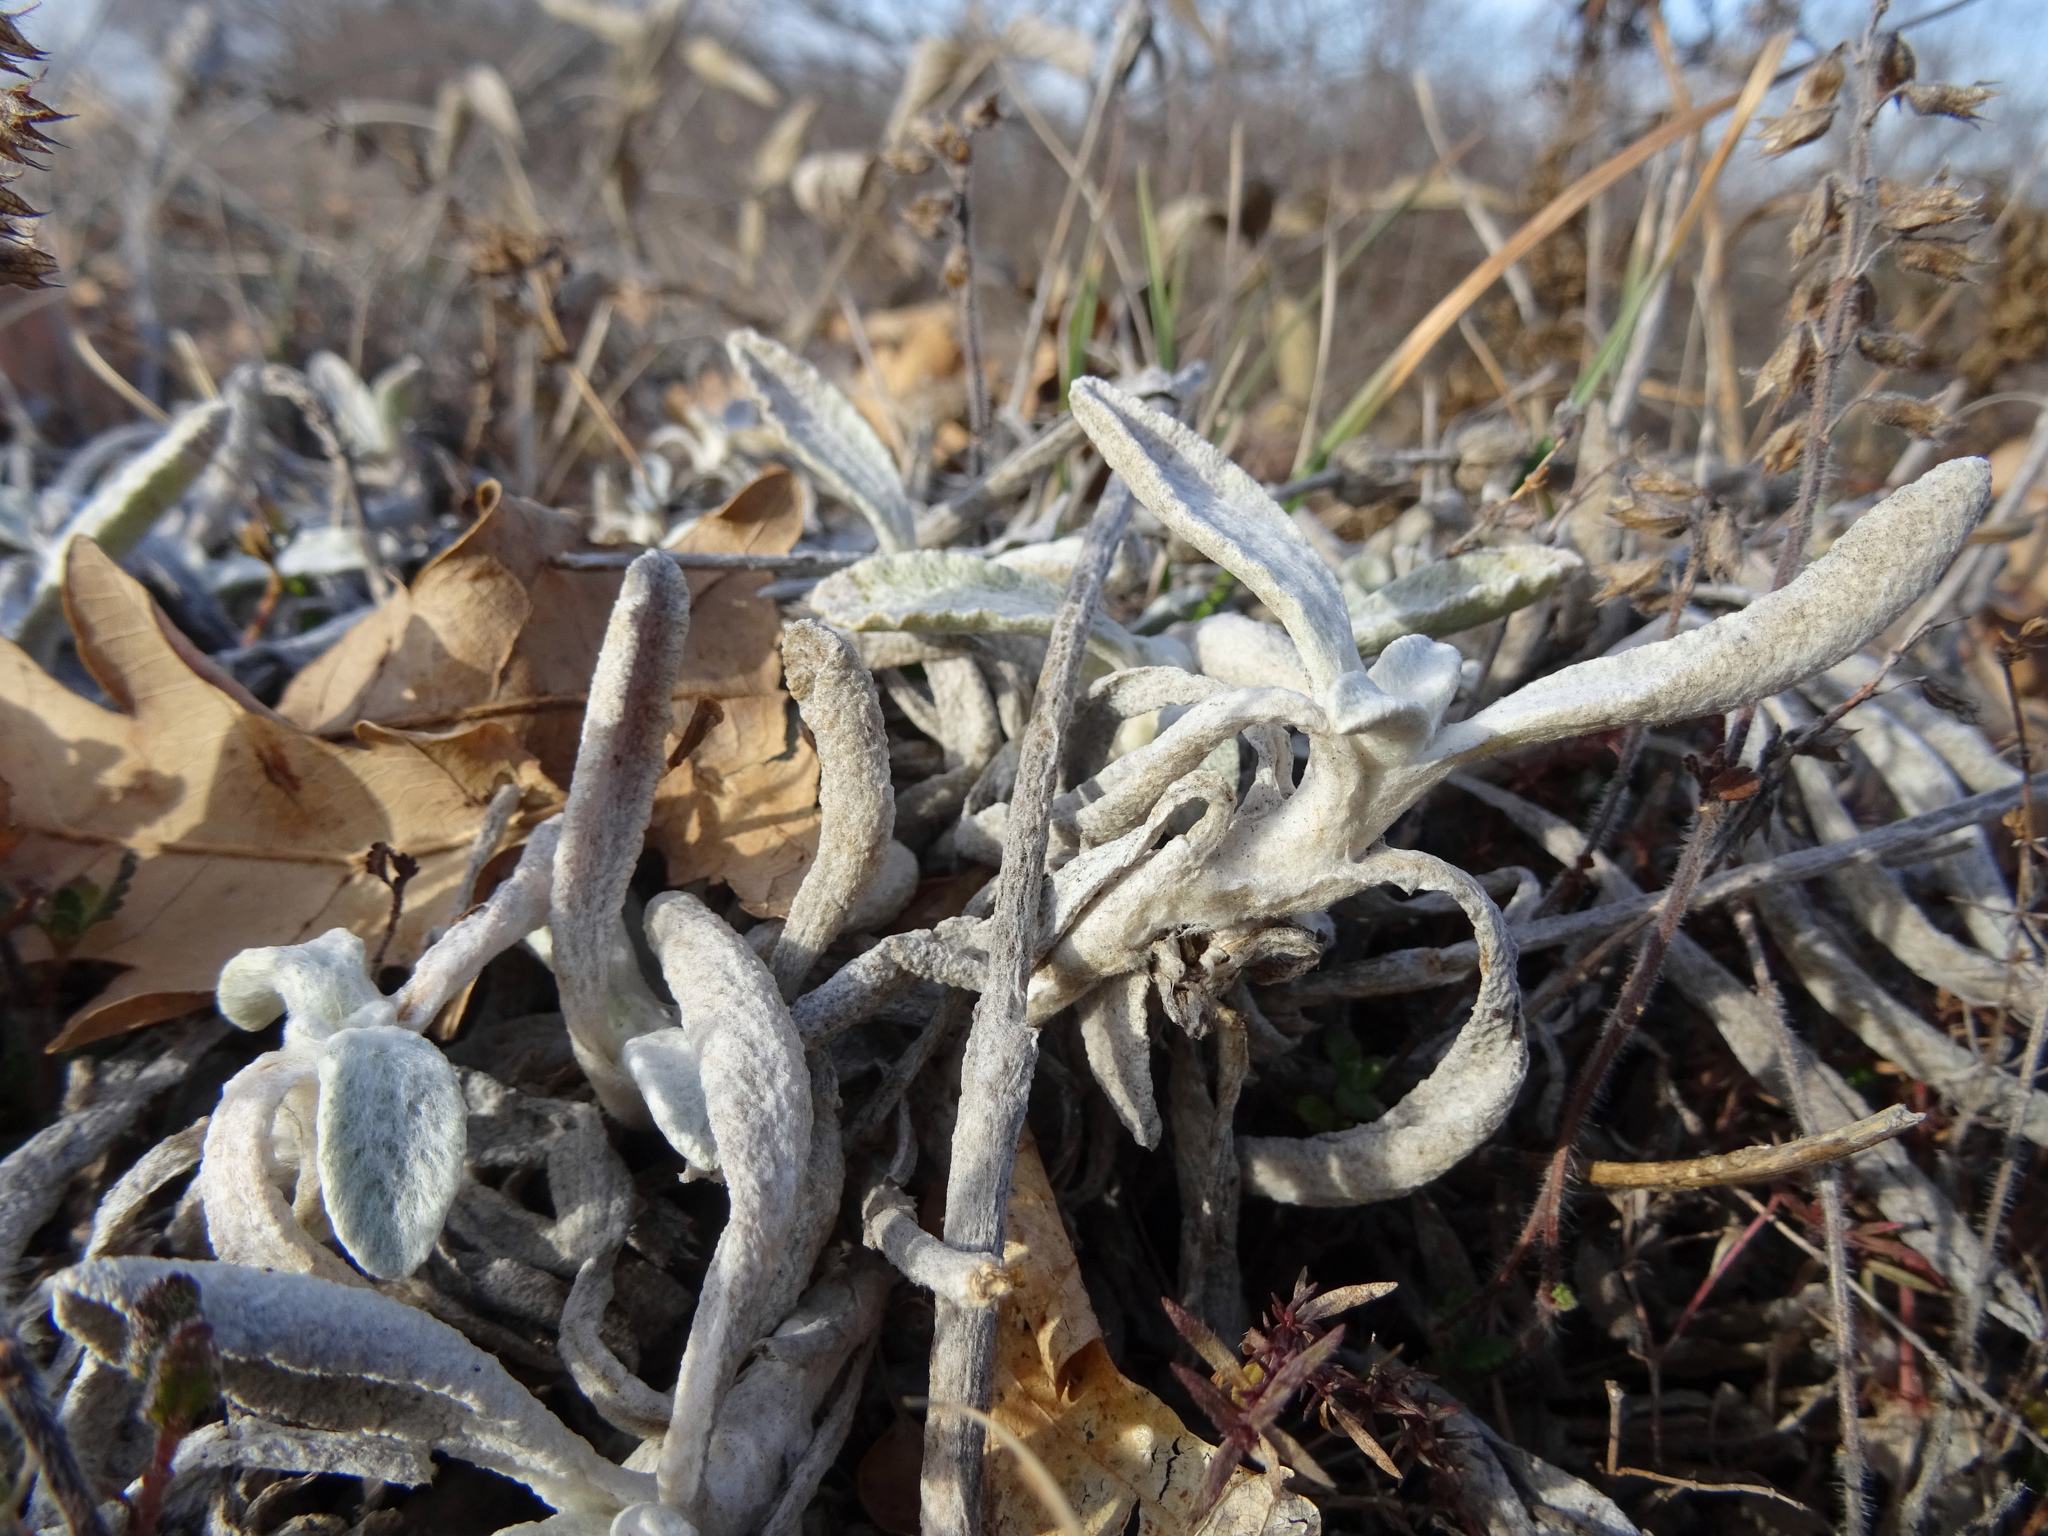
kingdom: Plantae
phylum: Tracheophyta
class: Magnoliopsida
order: Lamiales
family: Lamiaceae
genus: Sideritis
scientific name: Sideritis taurica
